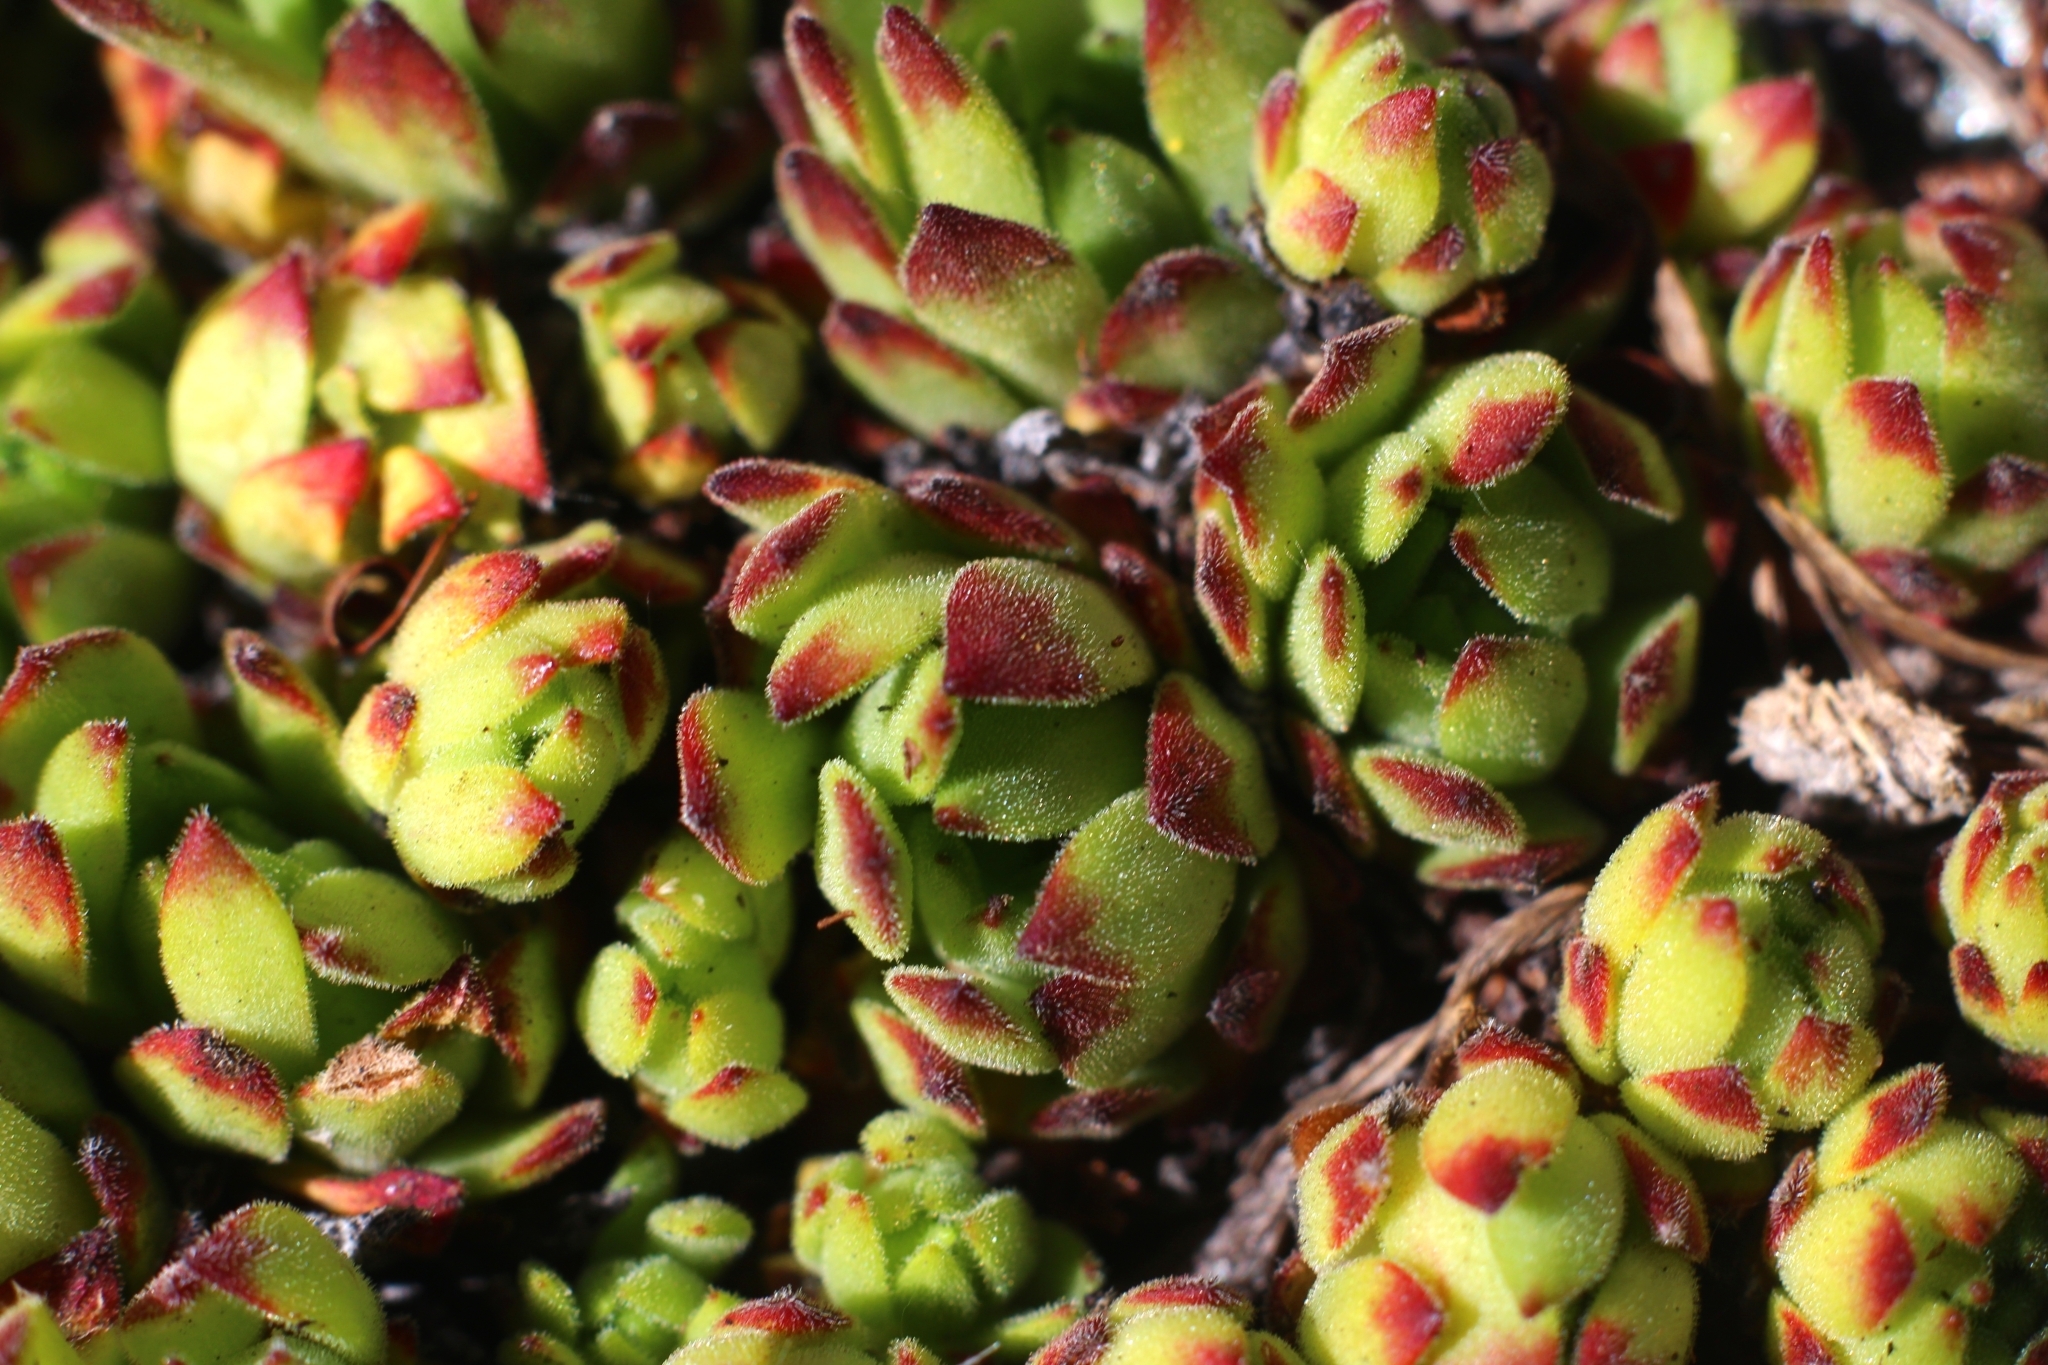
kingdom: Plantae
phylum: Tracheophyta
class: Magnoliopsida
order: Saxifragales
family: Crassulaceae
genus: Sempervivum
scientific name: Sempervivum montanum
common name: Mountain house-leek
